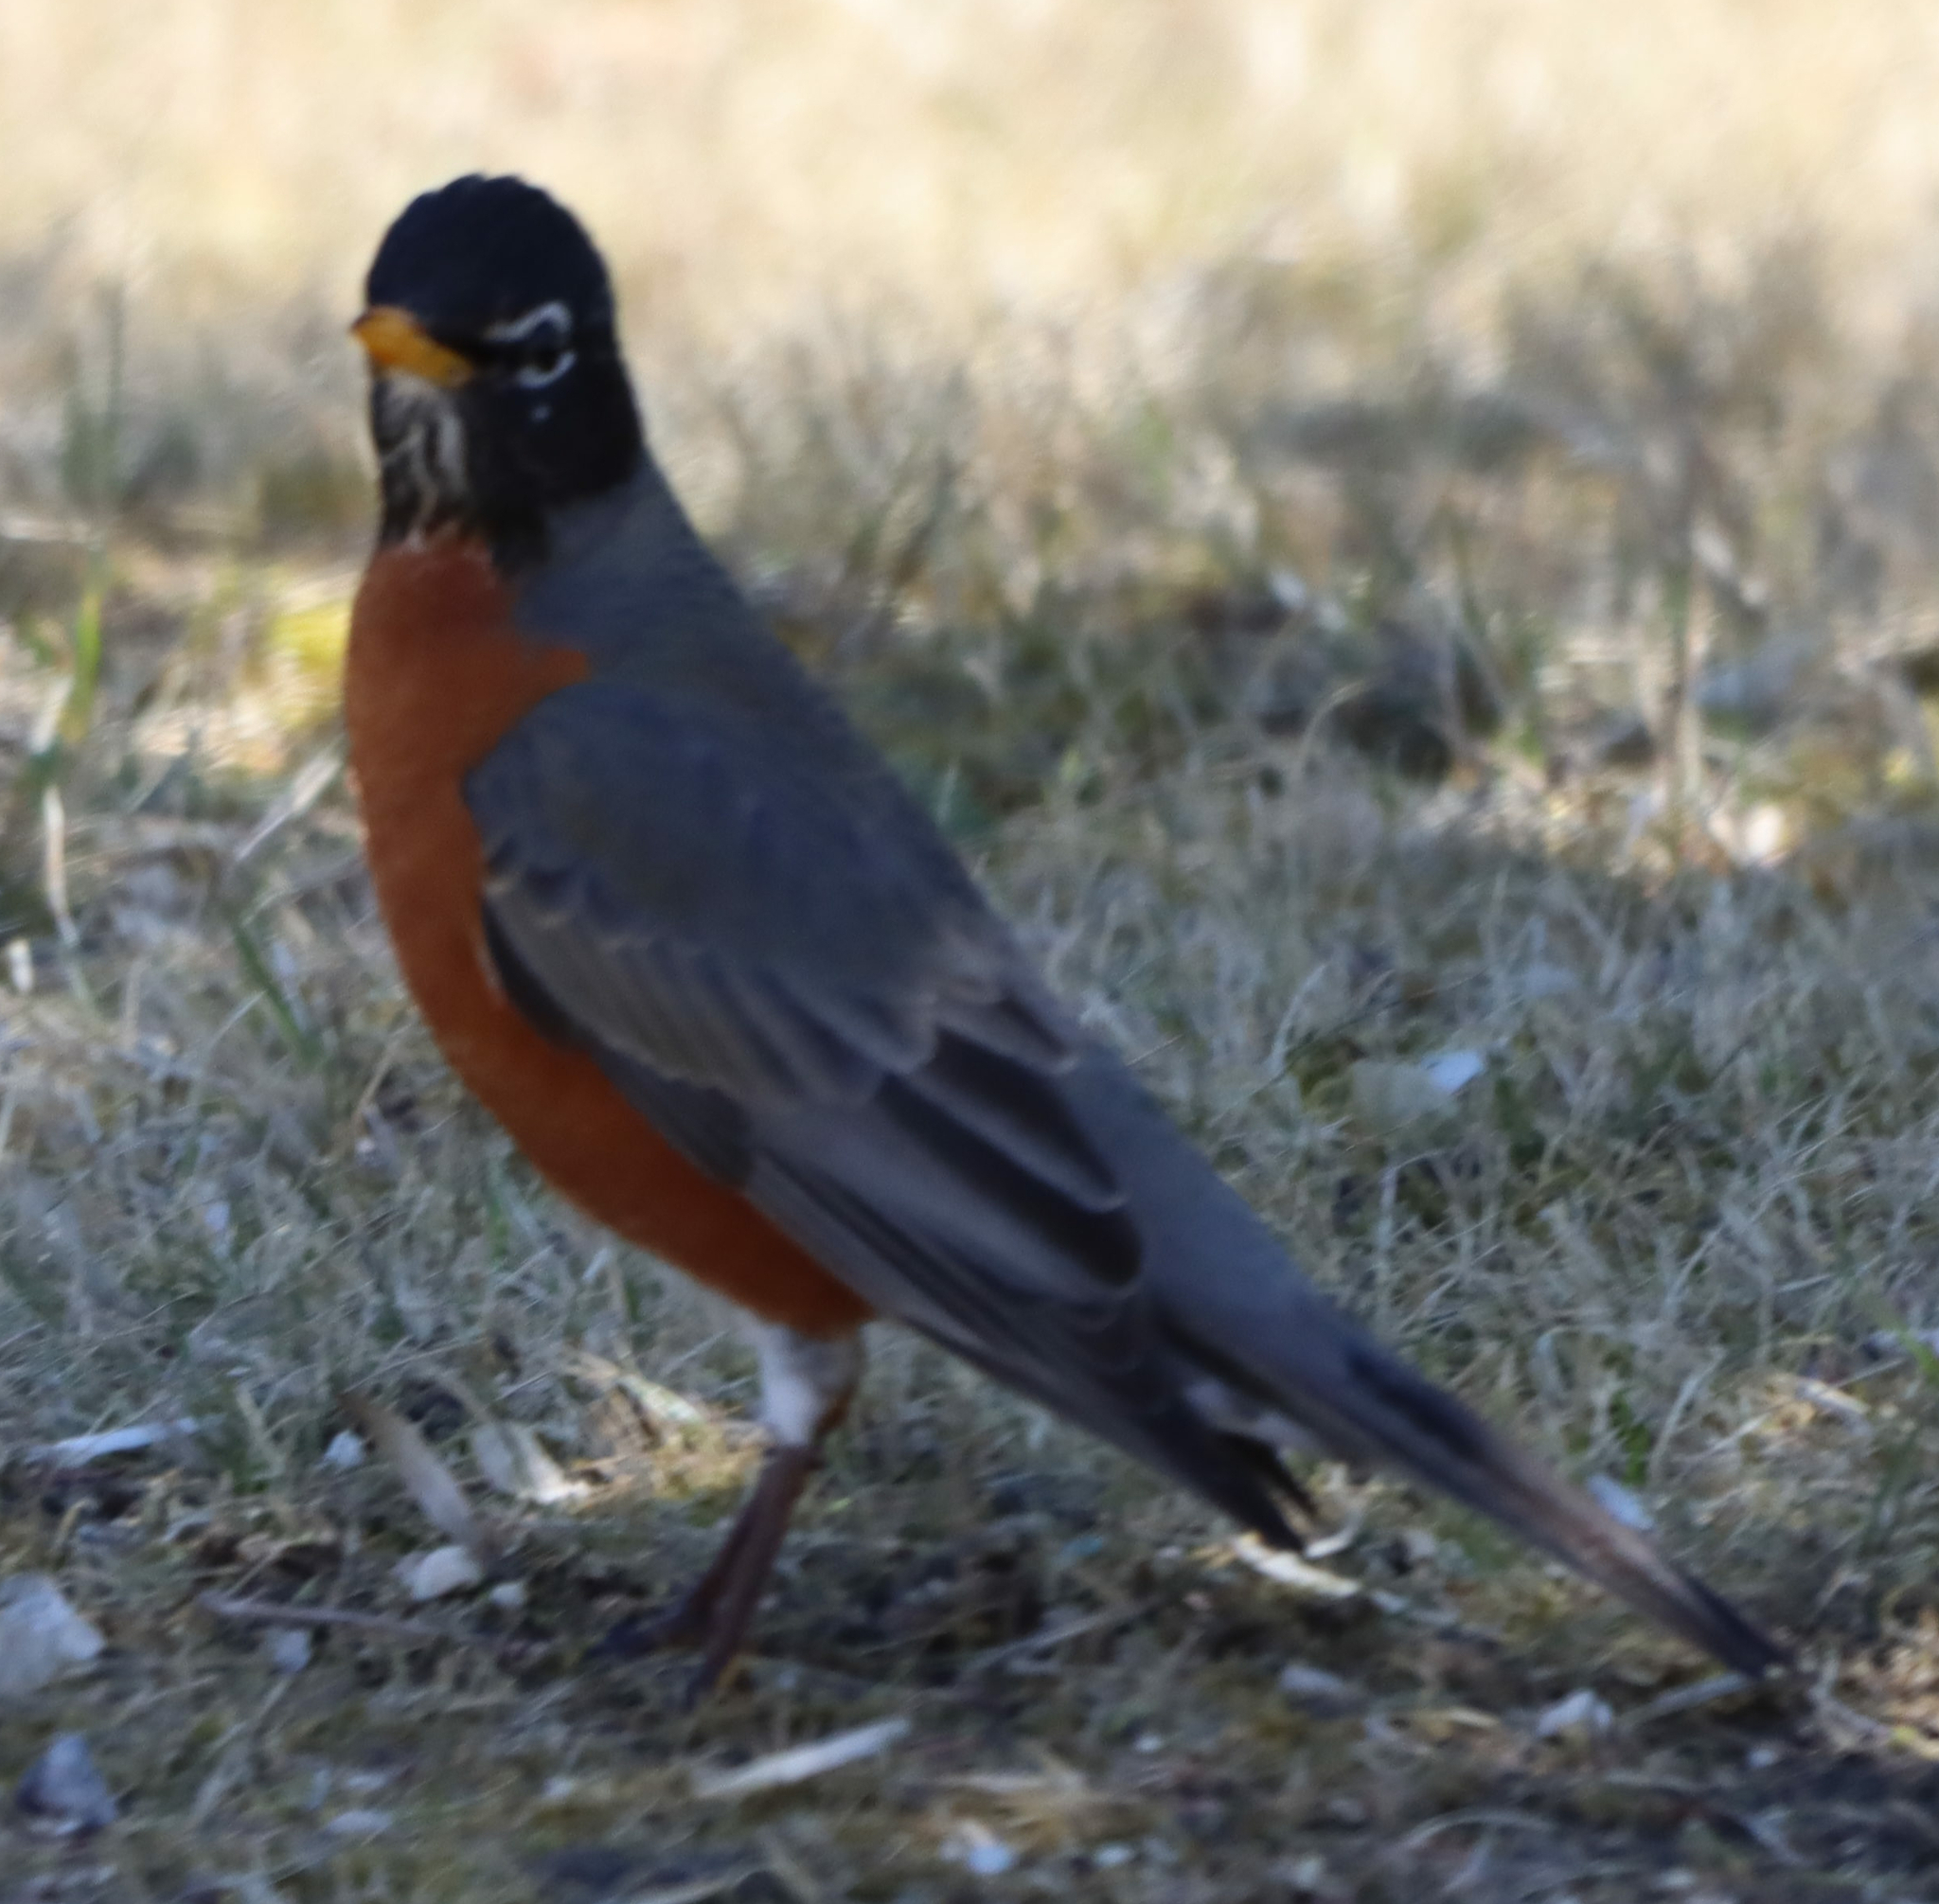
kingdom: Animalia
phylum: Chordata
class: Aves
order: Passeriformes
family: Turdidae
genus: Turdus
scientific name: Turdus migratorius
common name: American robin
